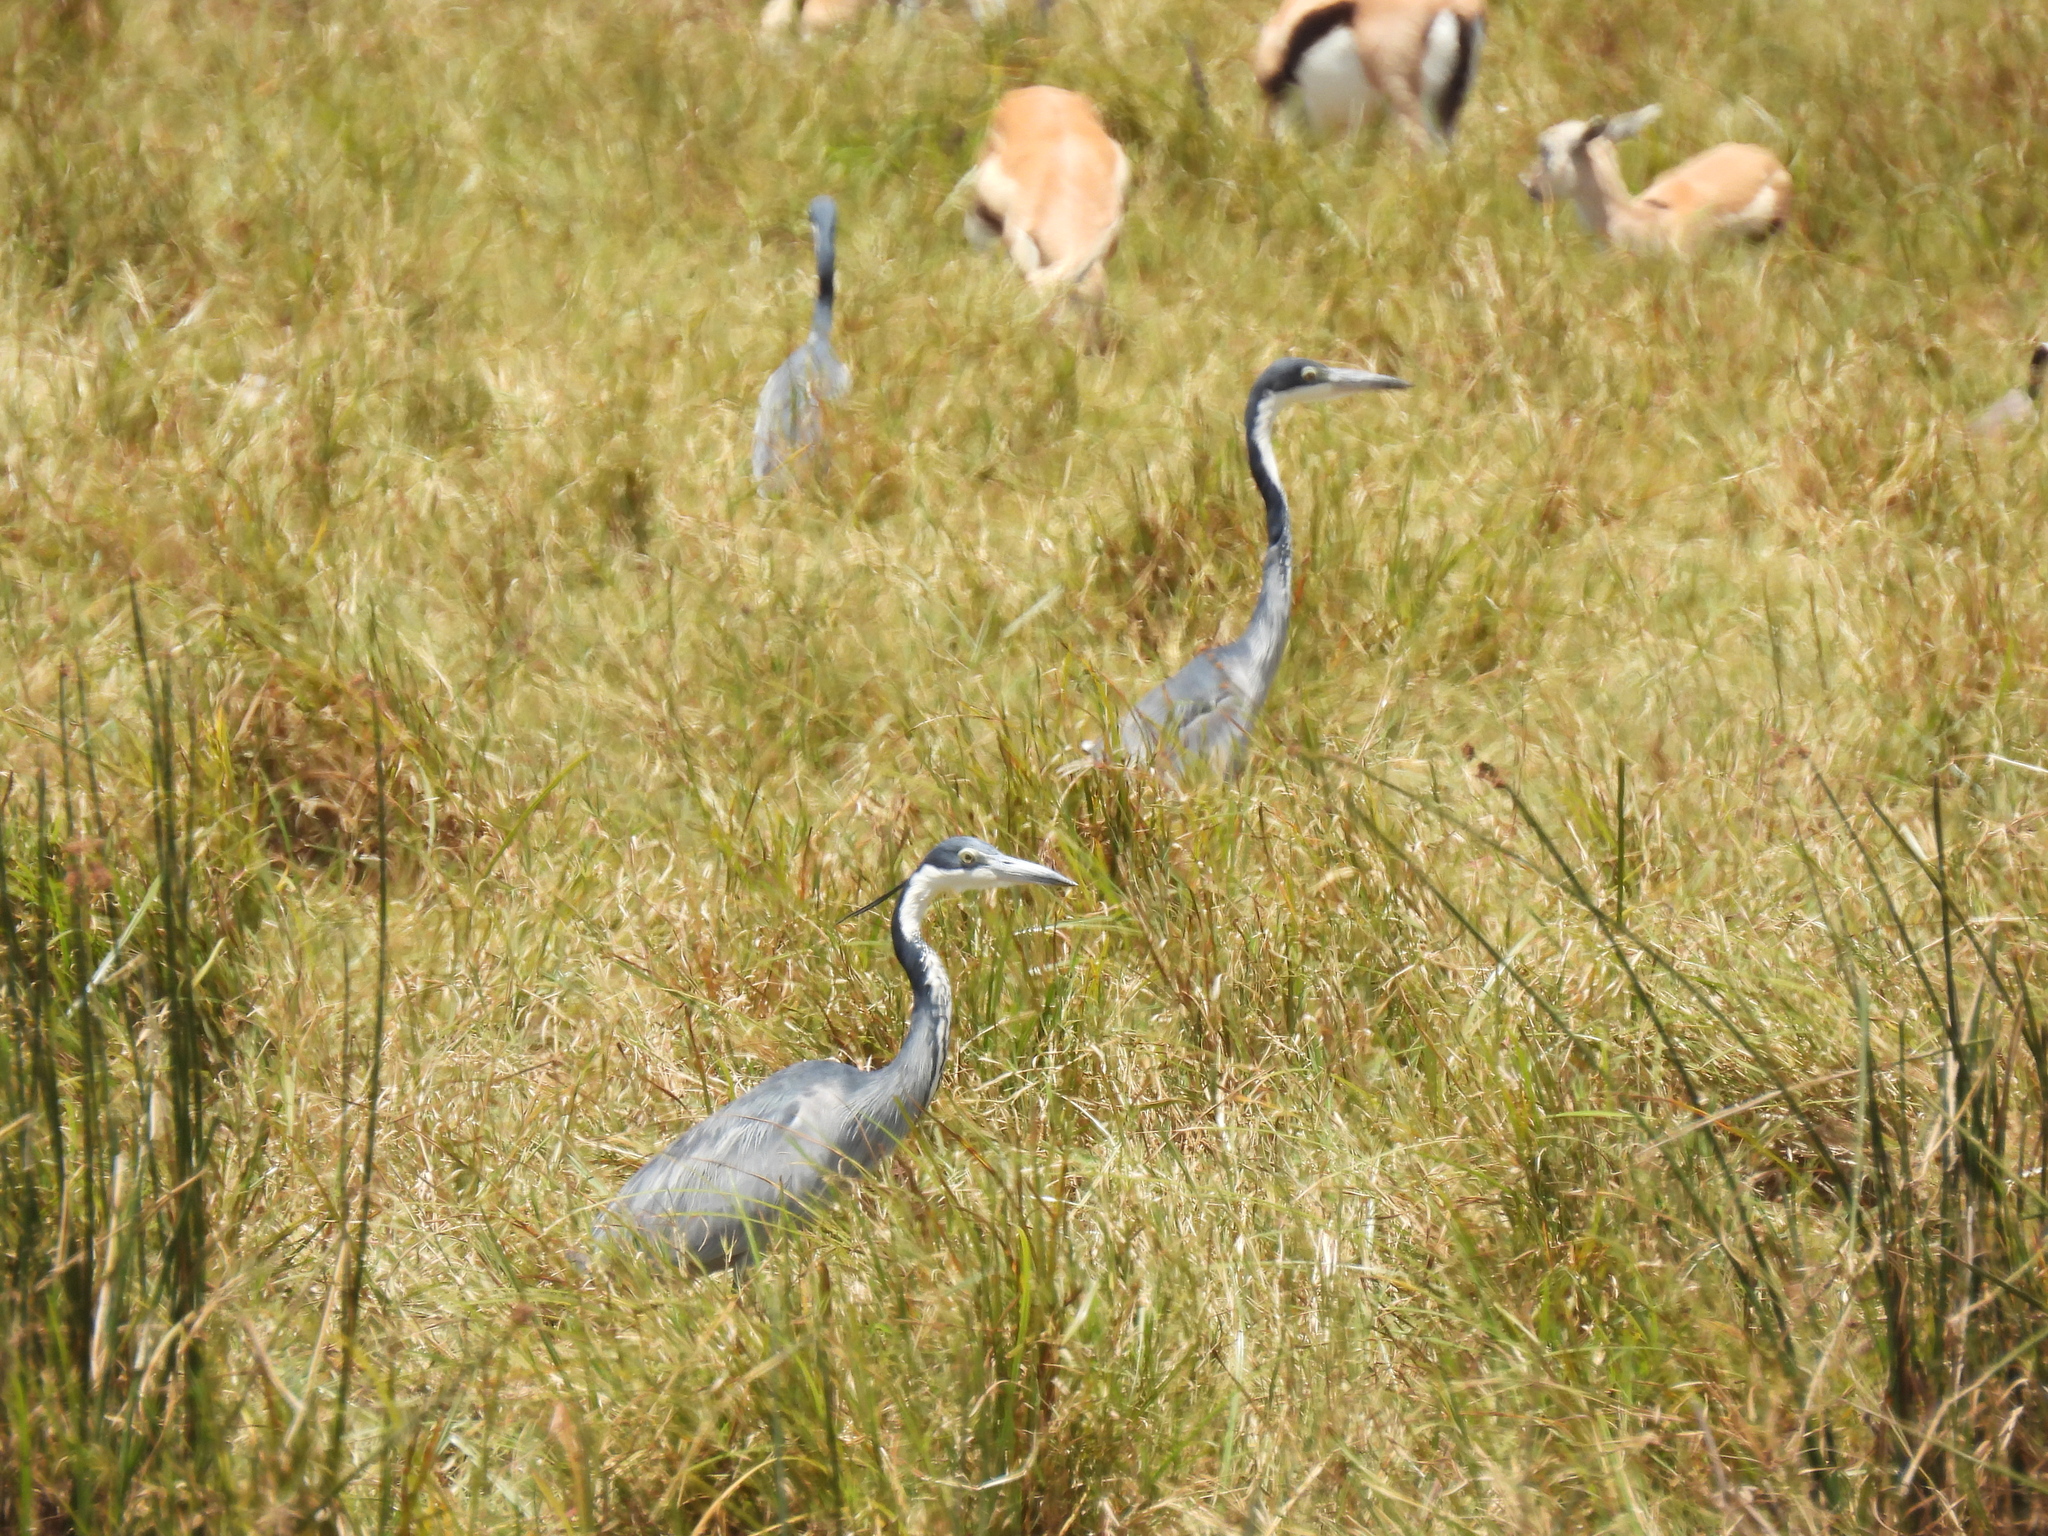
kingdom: Animalia
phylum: Chordata
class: Aves
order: Pelecaniformes
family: Ardeidae
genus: Ardea
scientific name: Ardea melanocephala
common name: Black-headed heron
